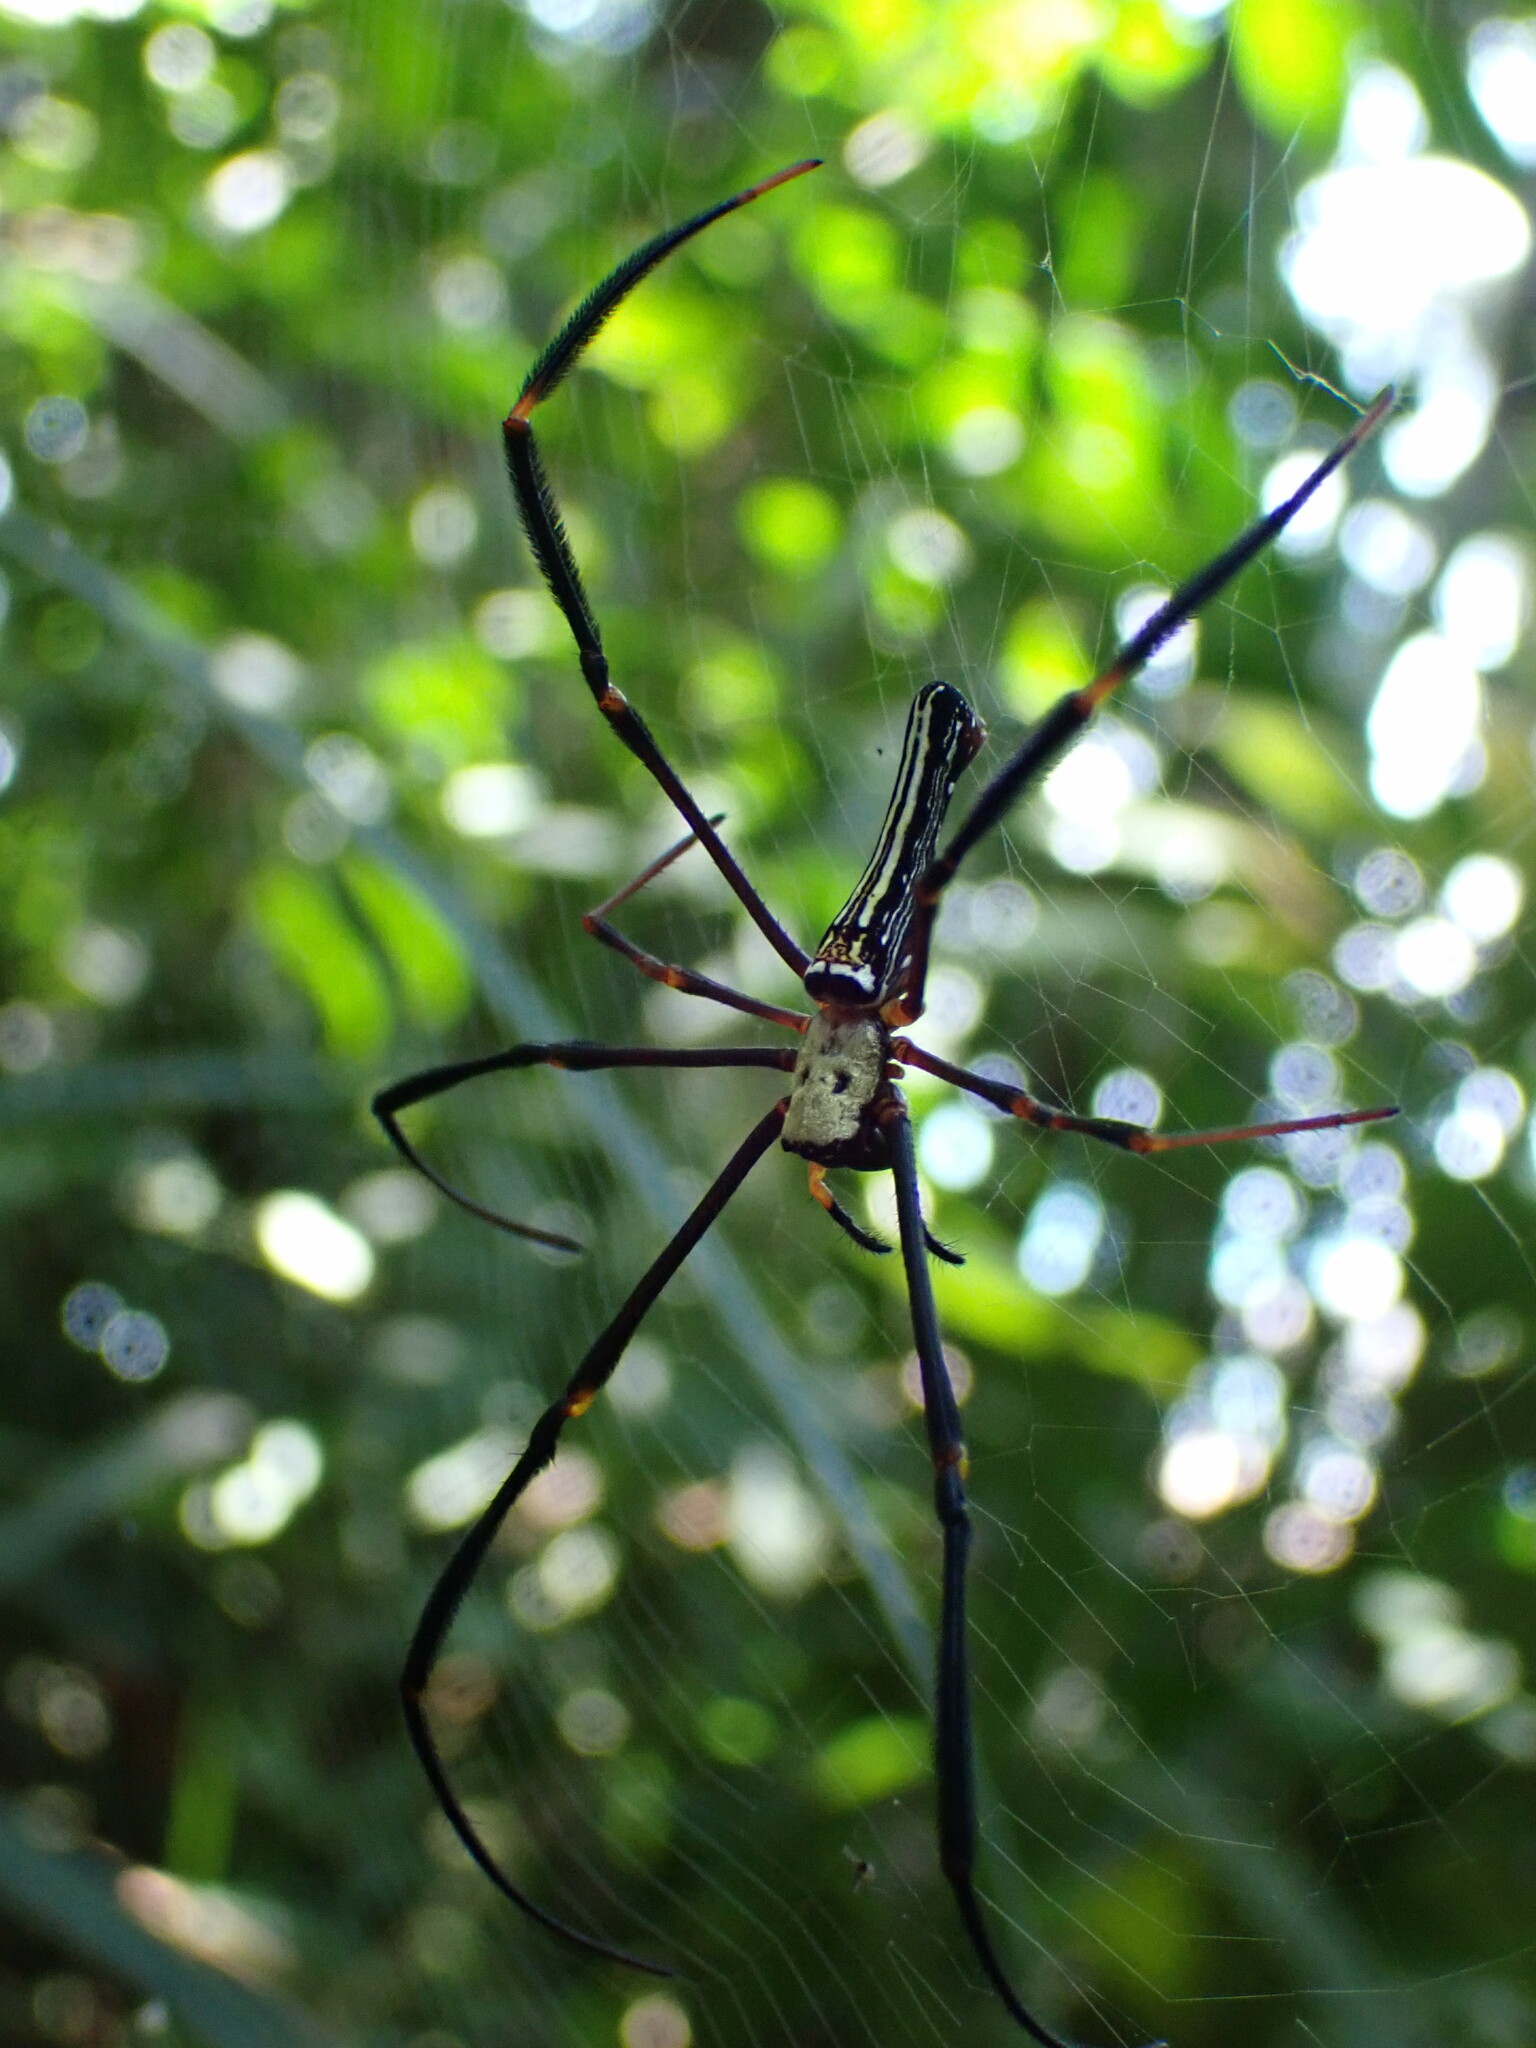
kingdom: Animalia
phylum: Arthropoda
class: Arachnida
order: Araneae
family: Araneidae
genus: Nephila
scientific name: Nephila pilipes
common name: Giant golden orb weaver
